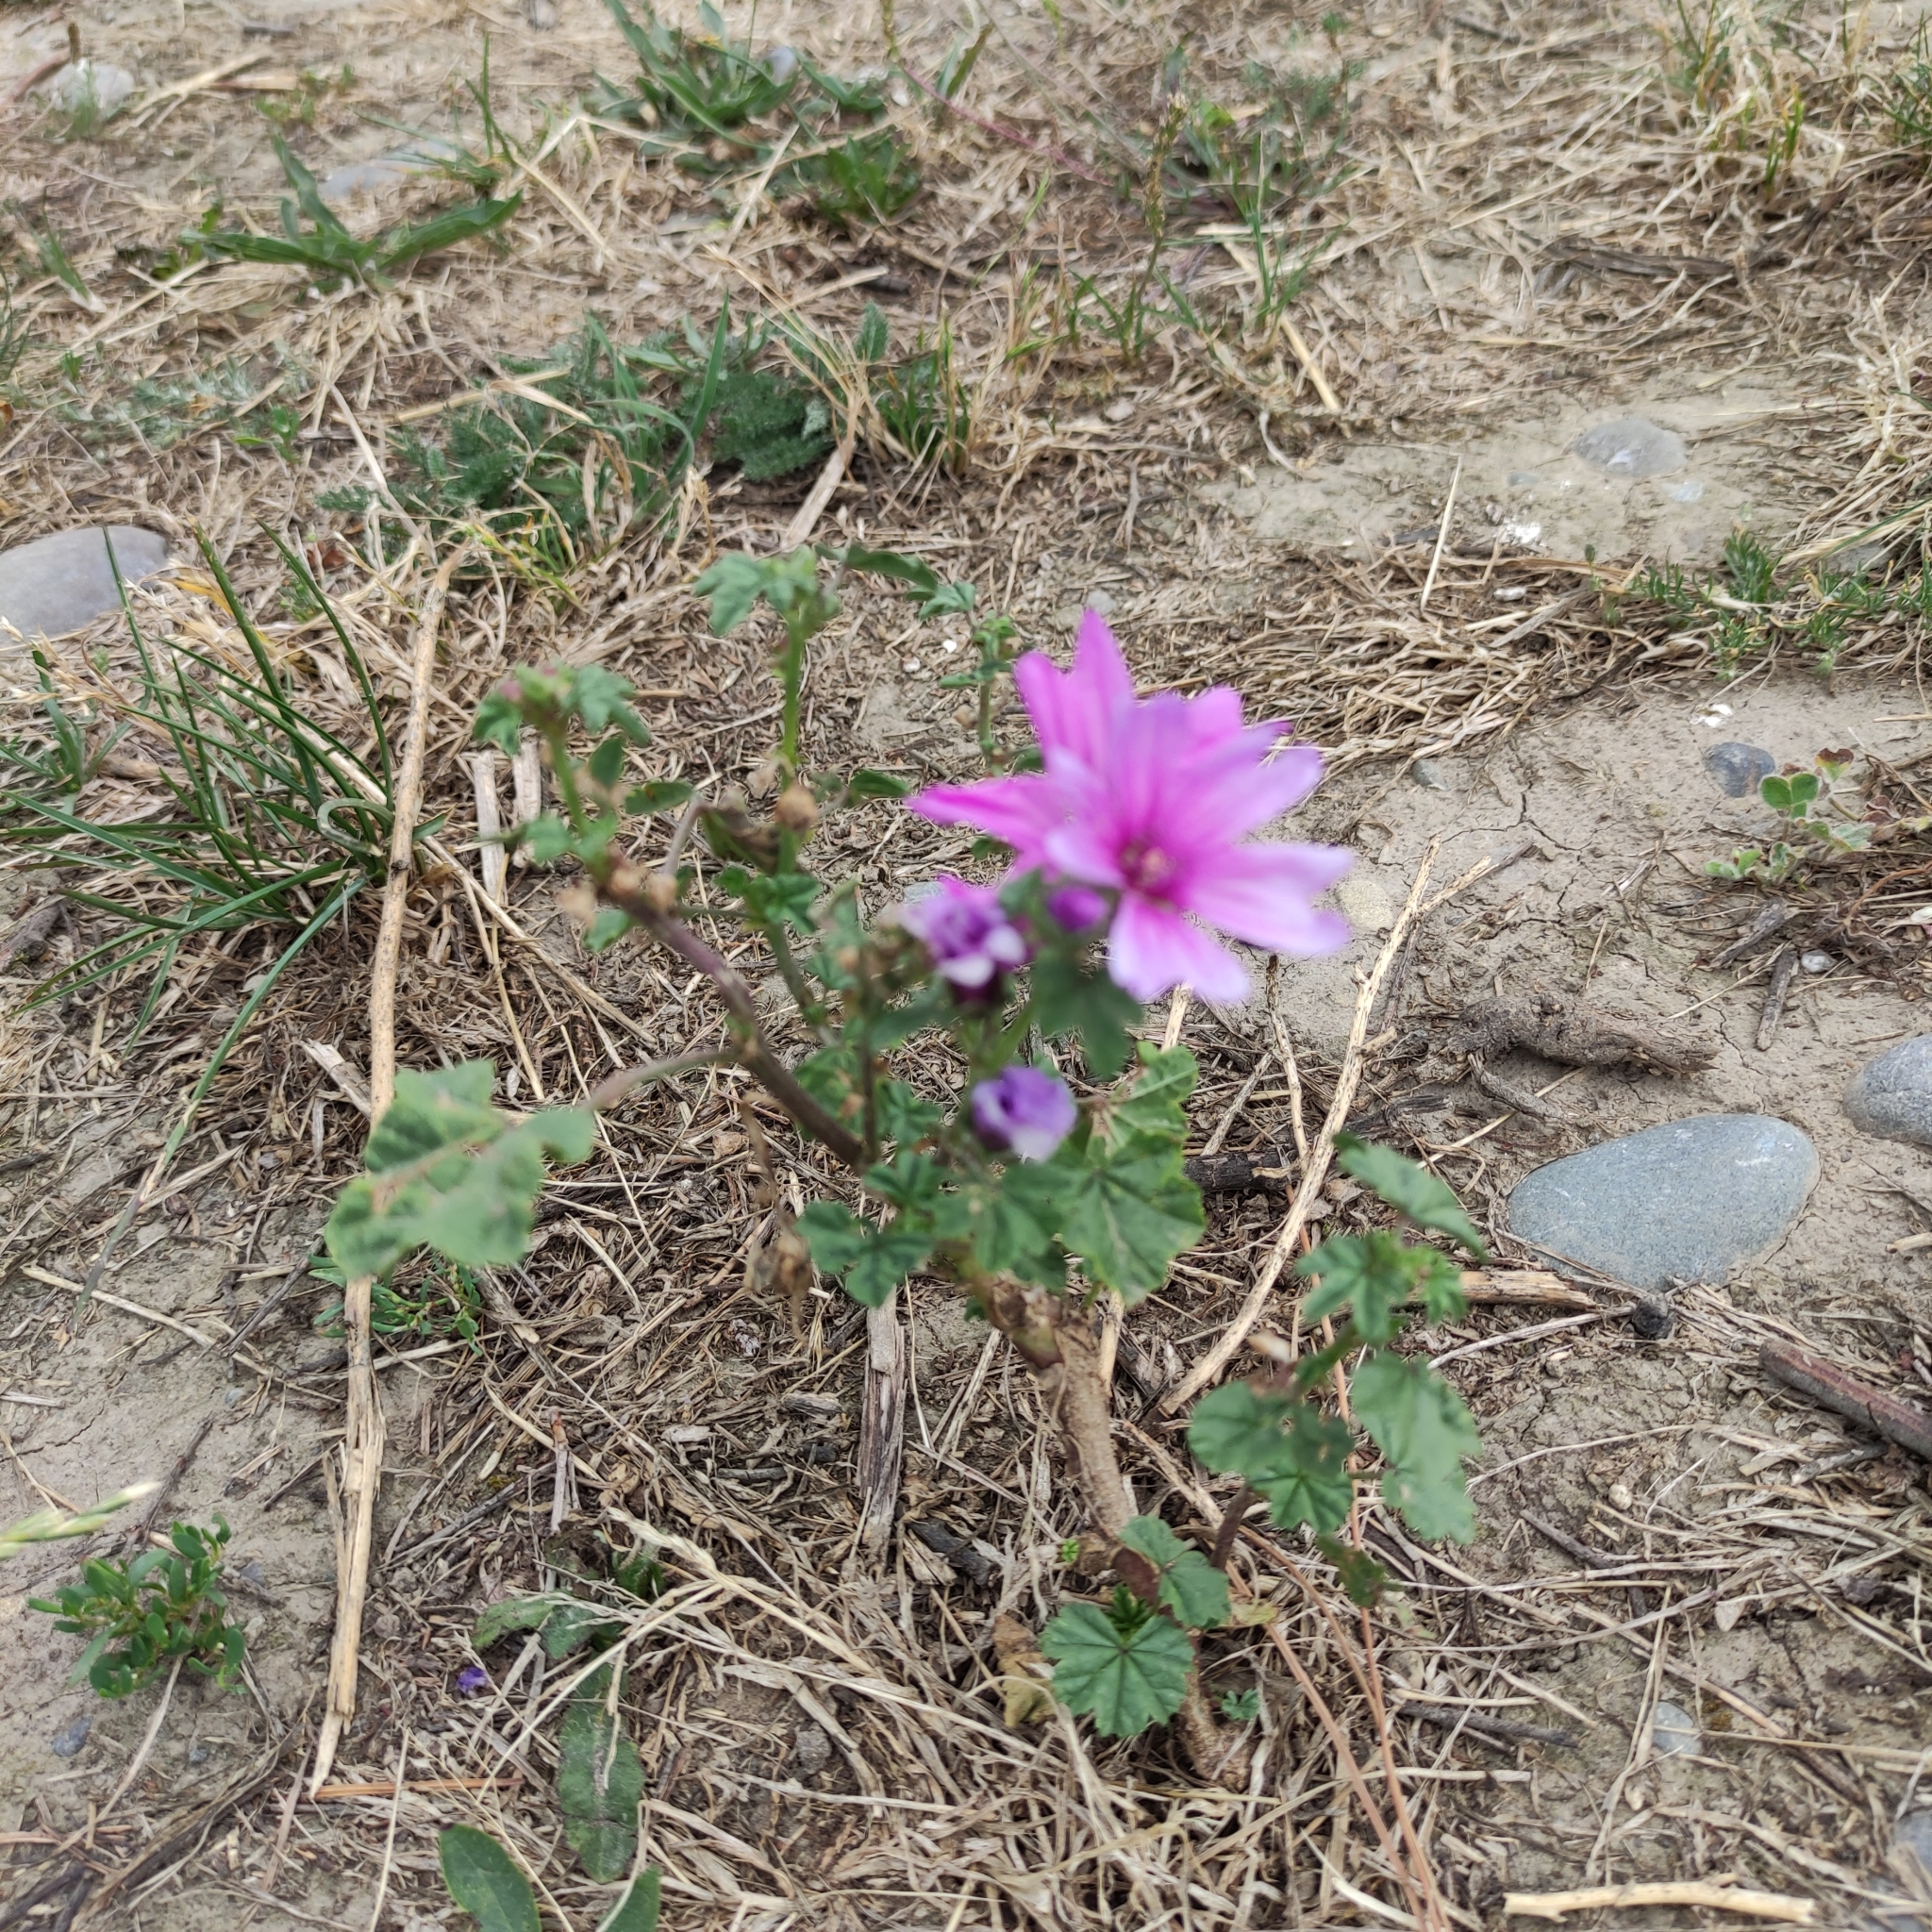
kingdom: Plantae
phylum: Tracheophyta
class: Magnoliopsida
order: Malvales
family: Malvaceae
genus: Malva
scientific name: Malva sylvestris
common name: Common mallow
